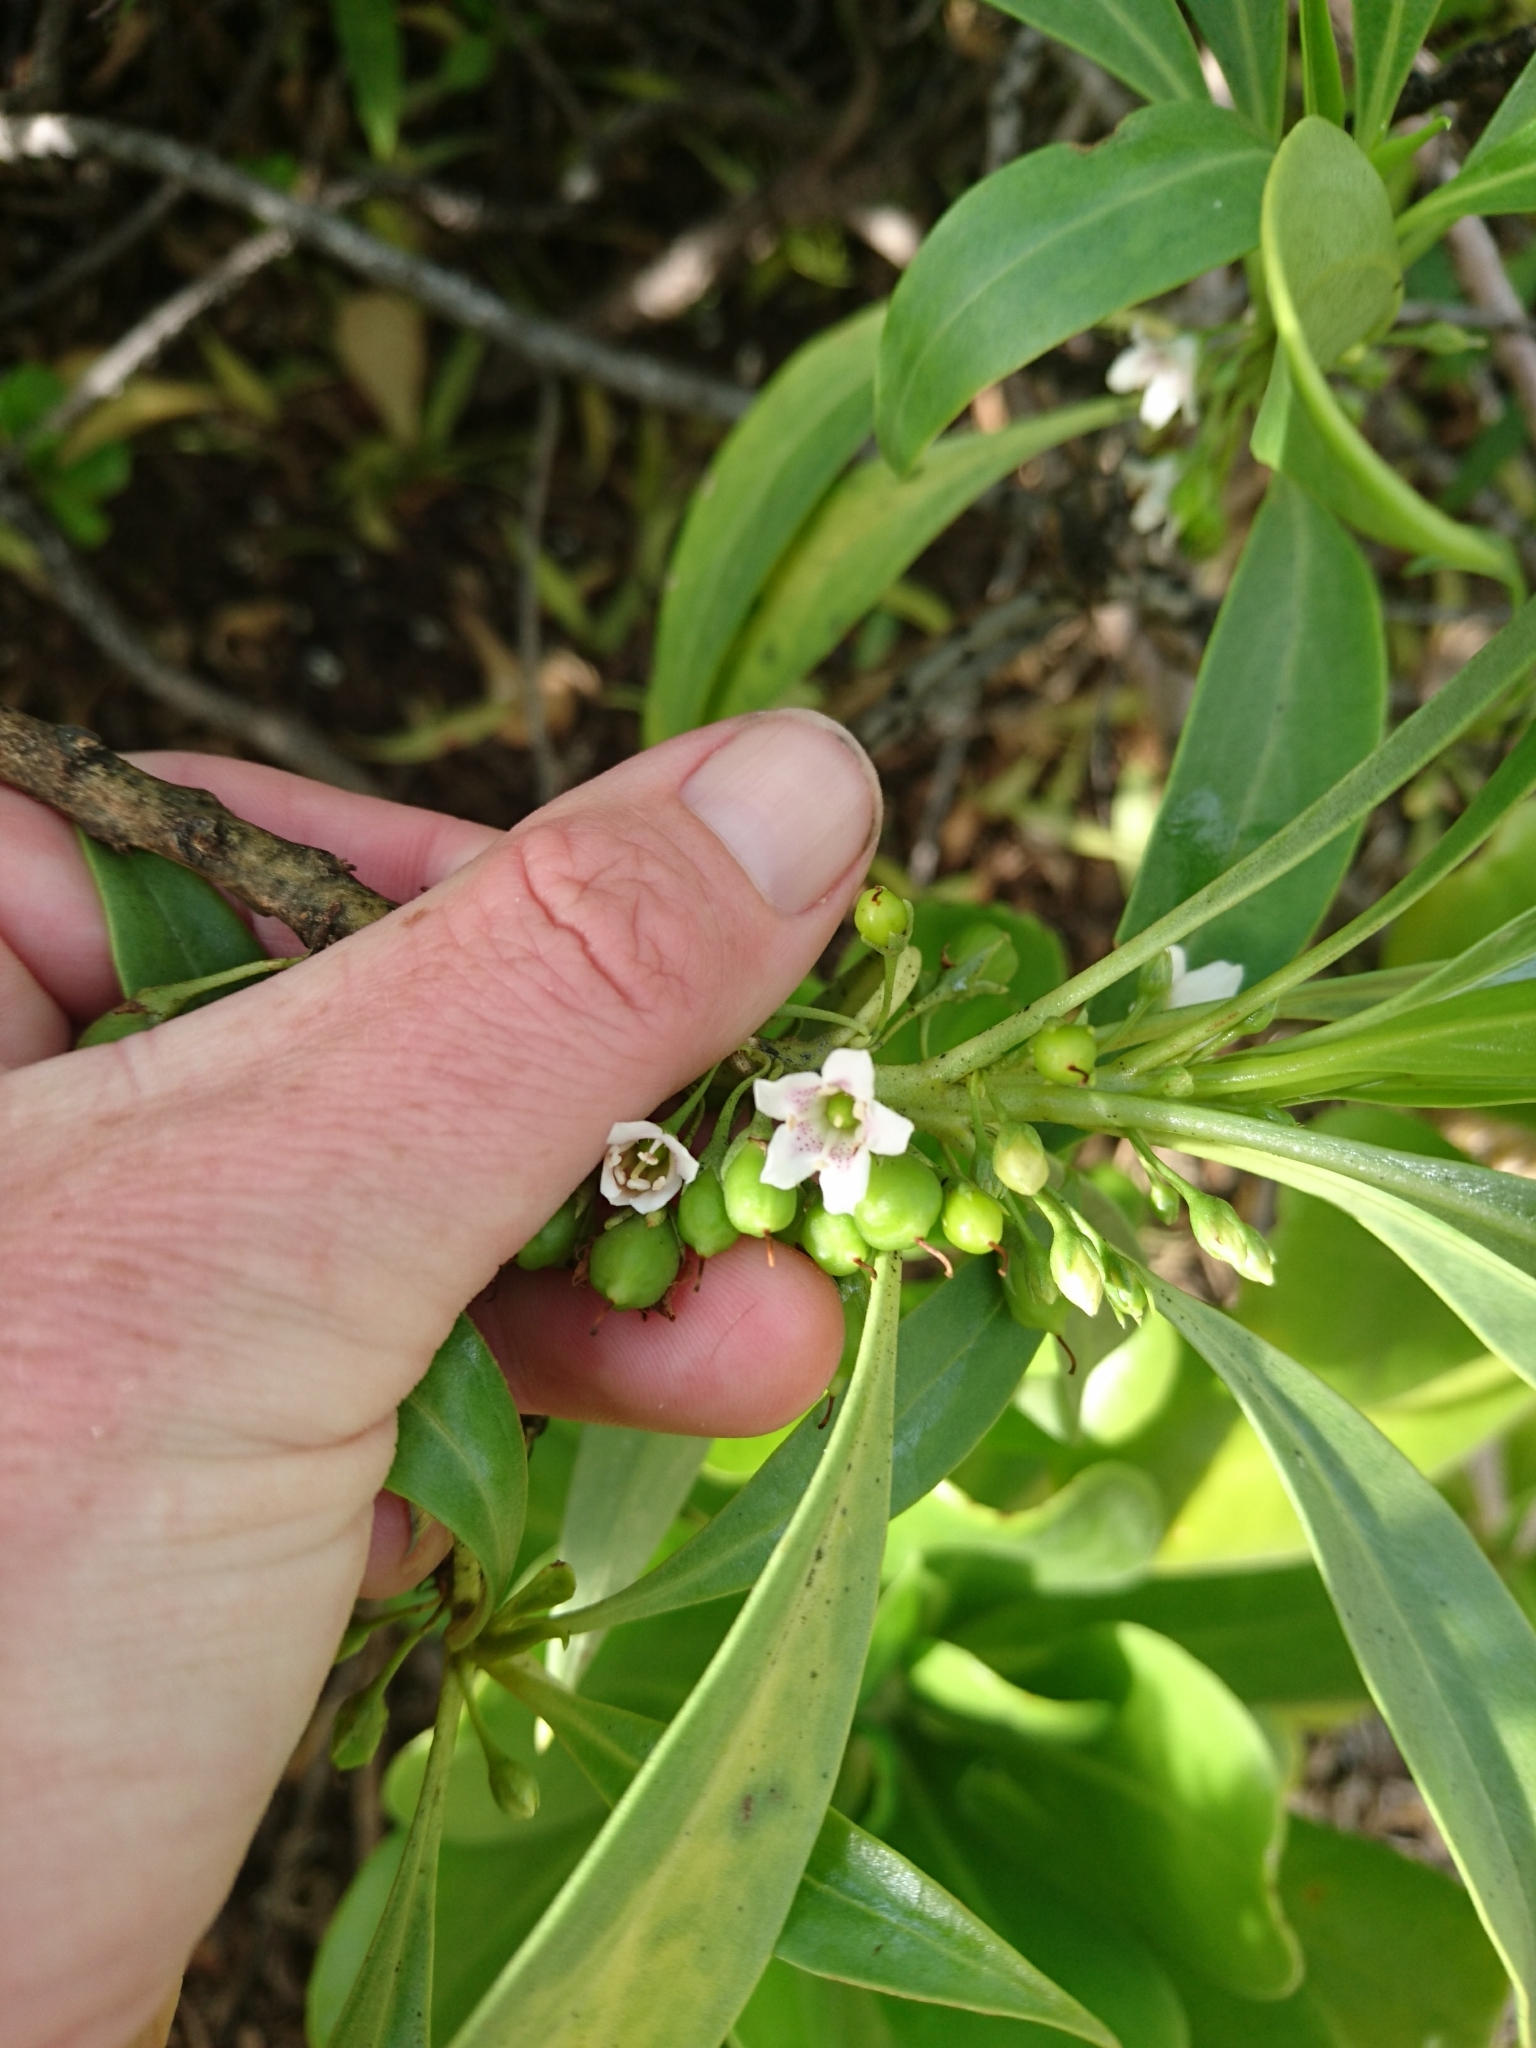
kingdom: Plantae
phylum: Tracheophyta
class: Magnoliopsida
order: Lamiales
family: Scrophulariaceae
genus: Myoporum
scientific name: Myoporum sandwicense
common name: Bastard-sandalwood
